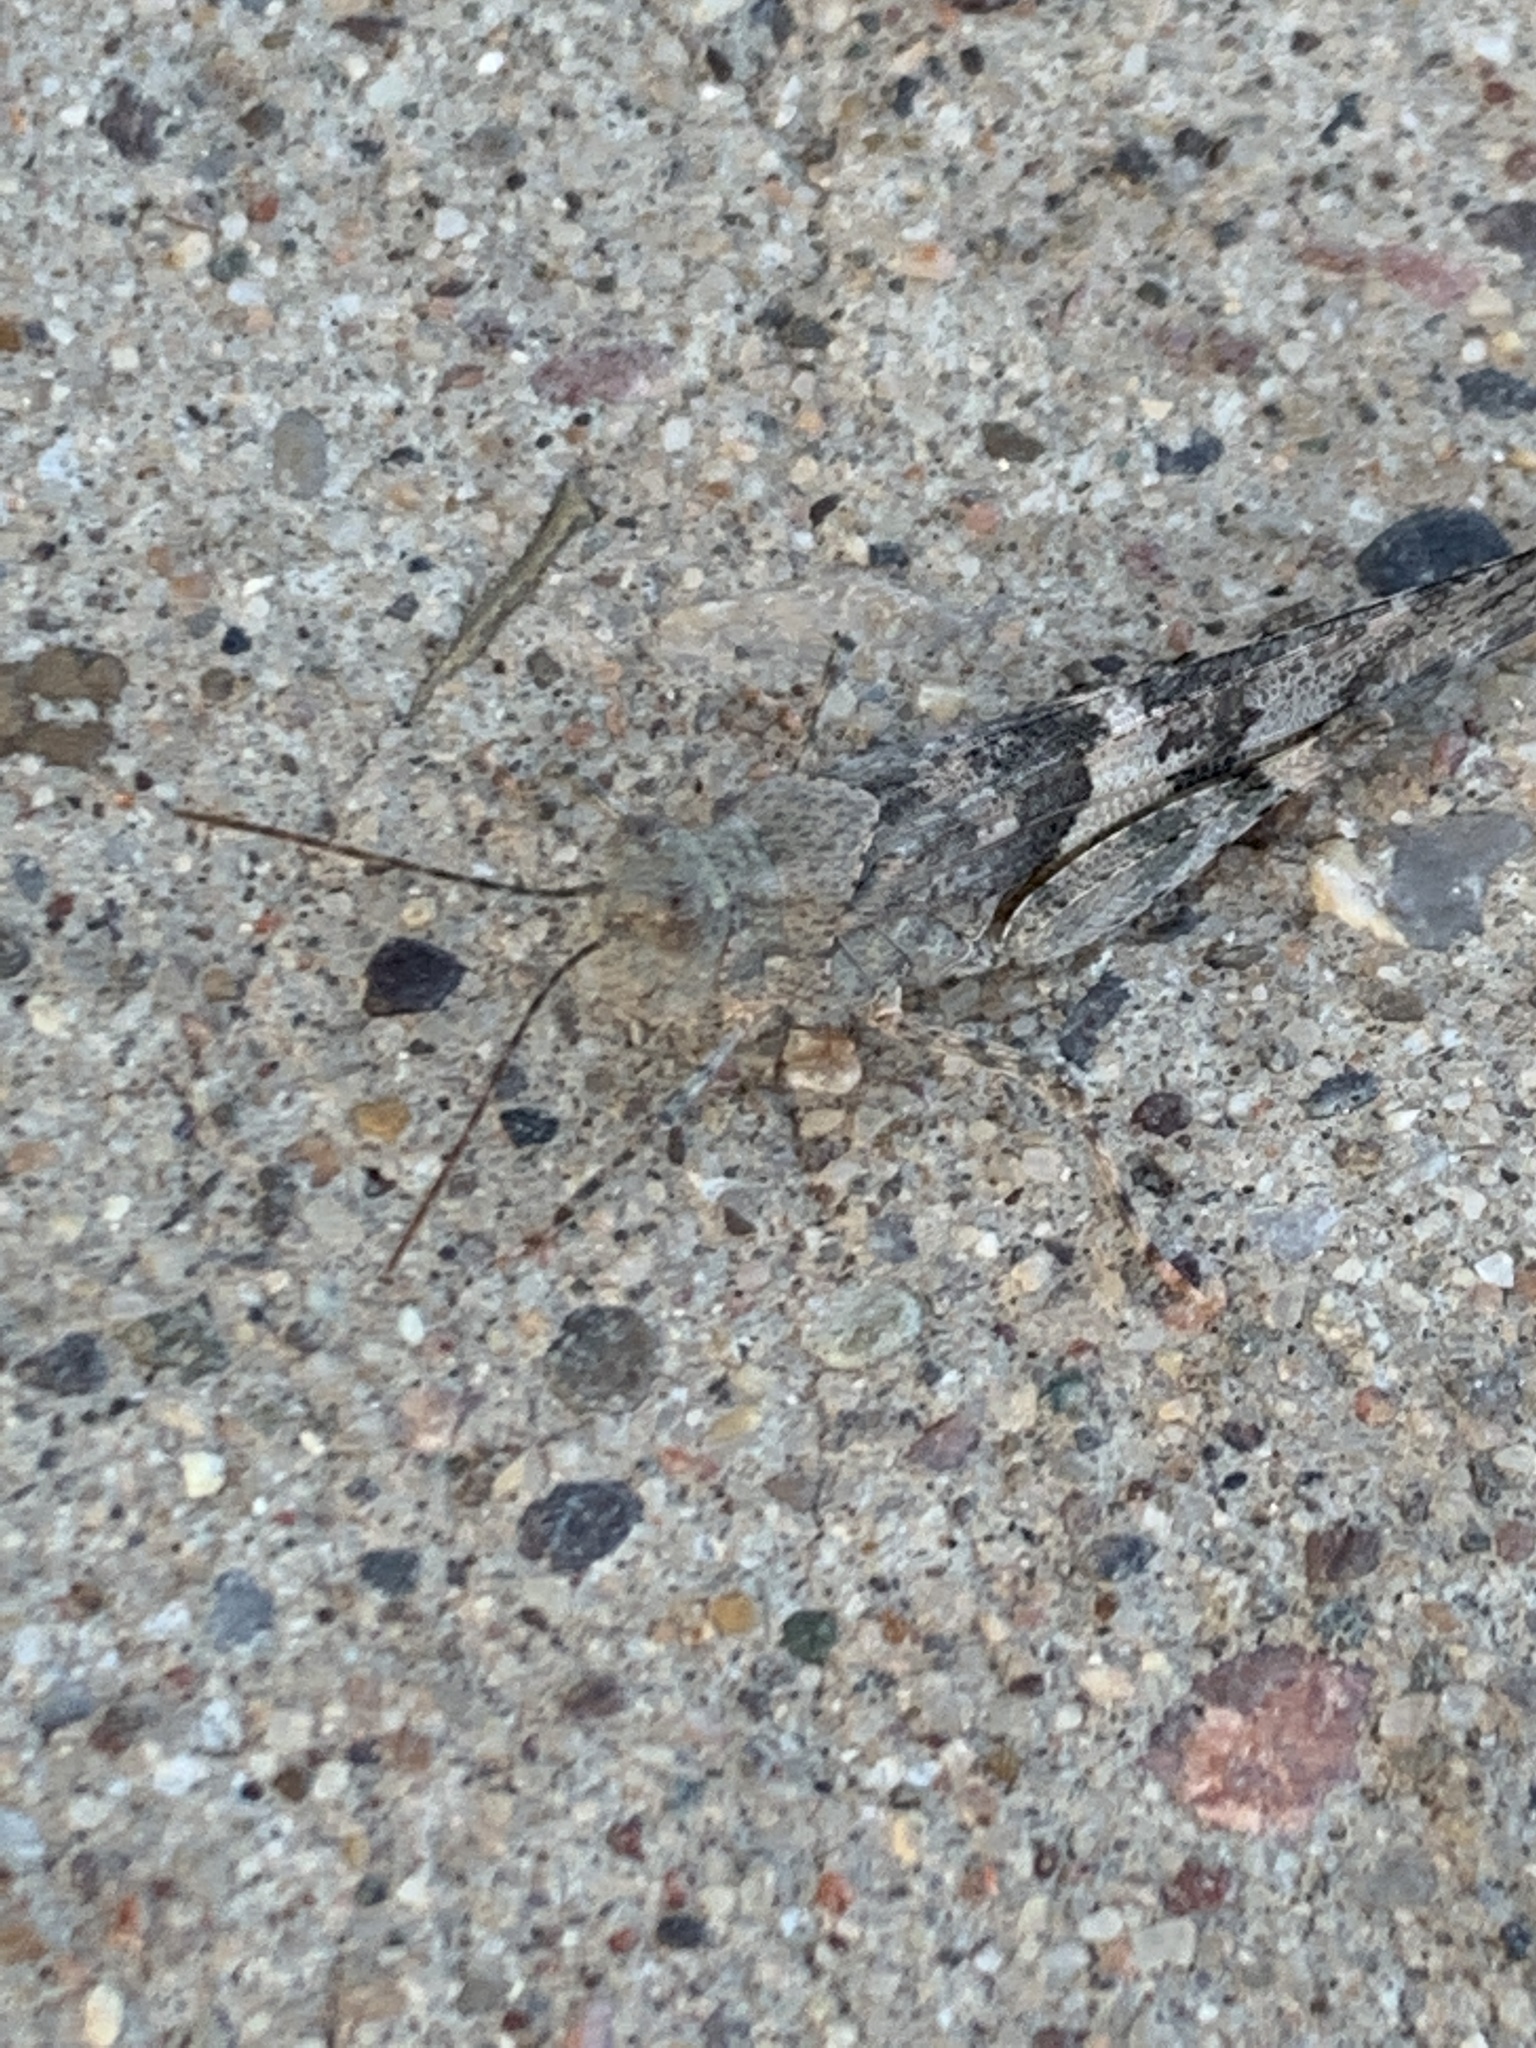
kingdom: Animalia
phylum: Arthropoda
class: Insecta
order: Orthoptera
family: Acrididae
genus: Trimerotropis
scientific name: Trimerotropis pallidipennis
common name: Pallid-winged grasshopper
